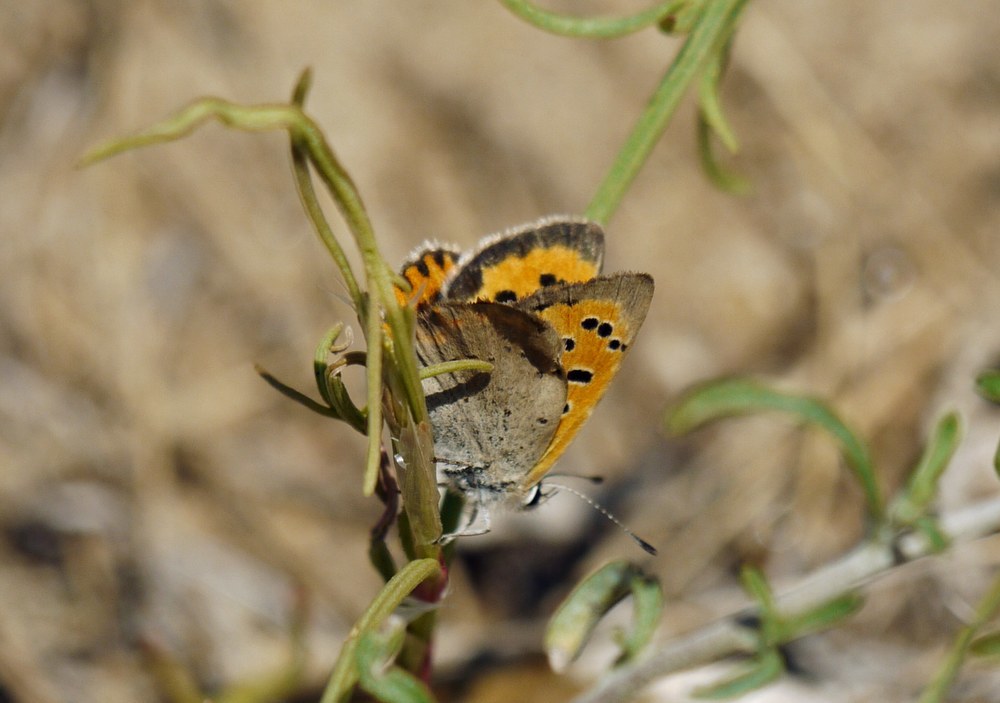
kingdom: Animalia
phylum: Arthropoda
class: Insecta
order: Lepidoptera
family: Lycaenidae
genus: Lycaena
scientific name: Lycaena phlaeas
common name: Small copper
